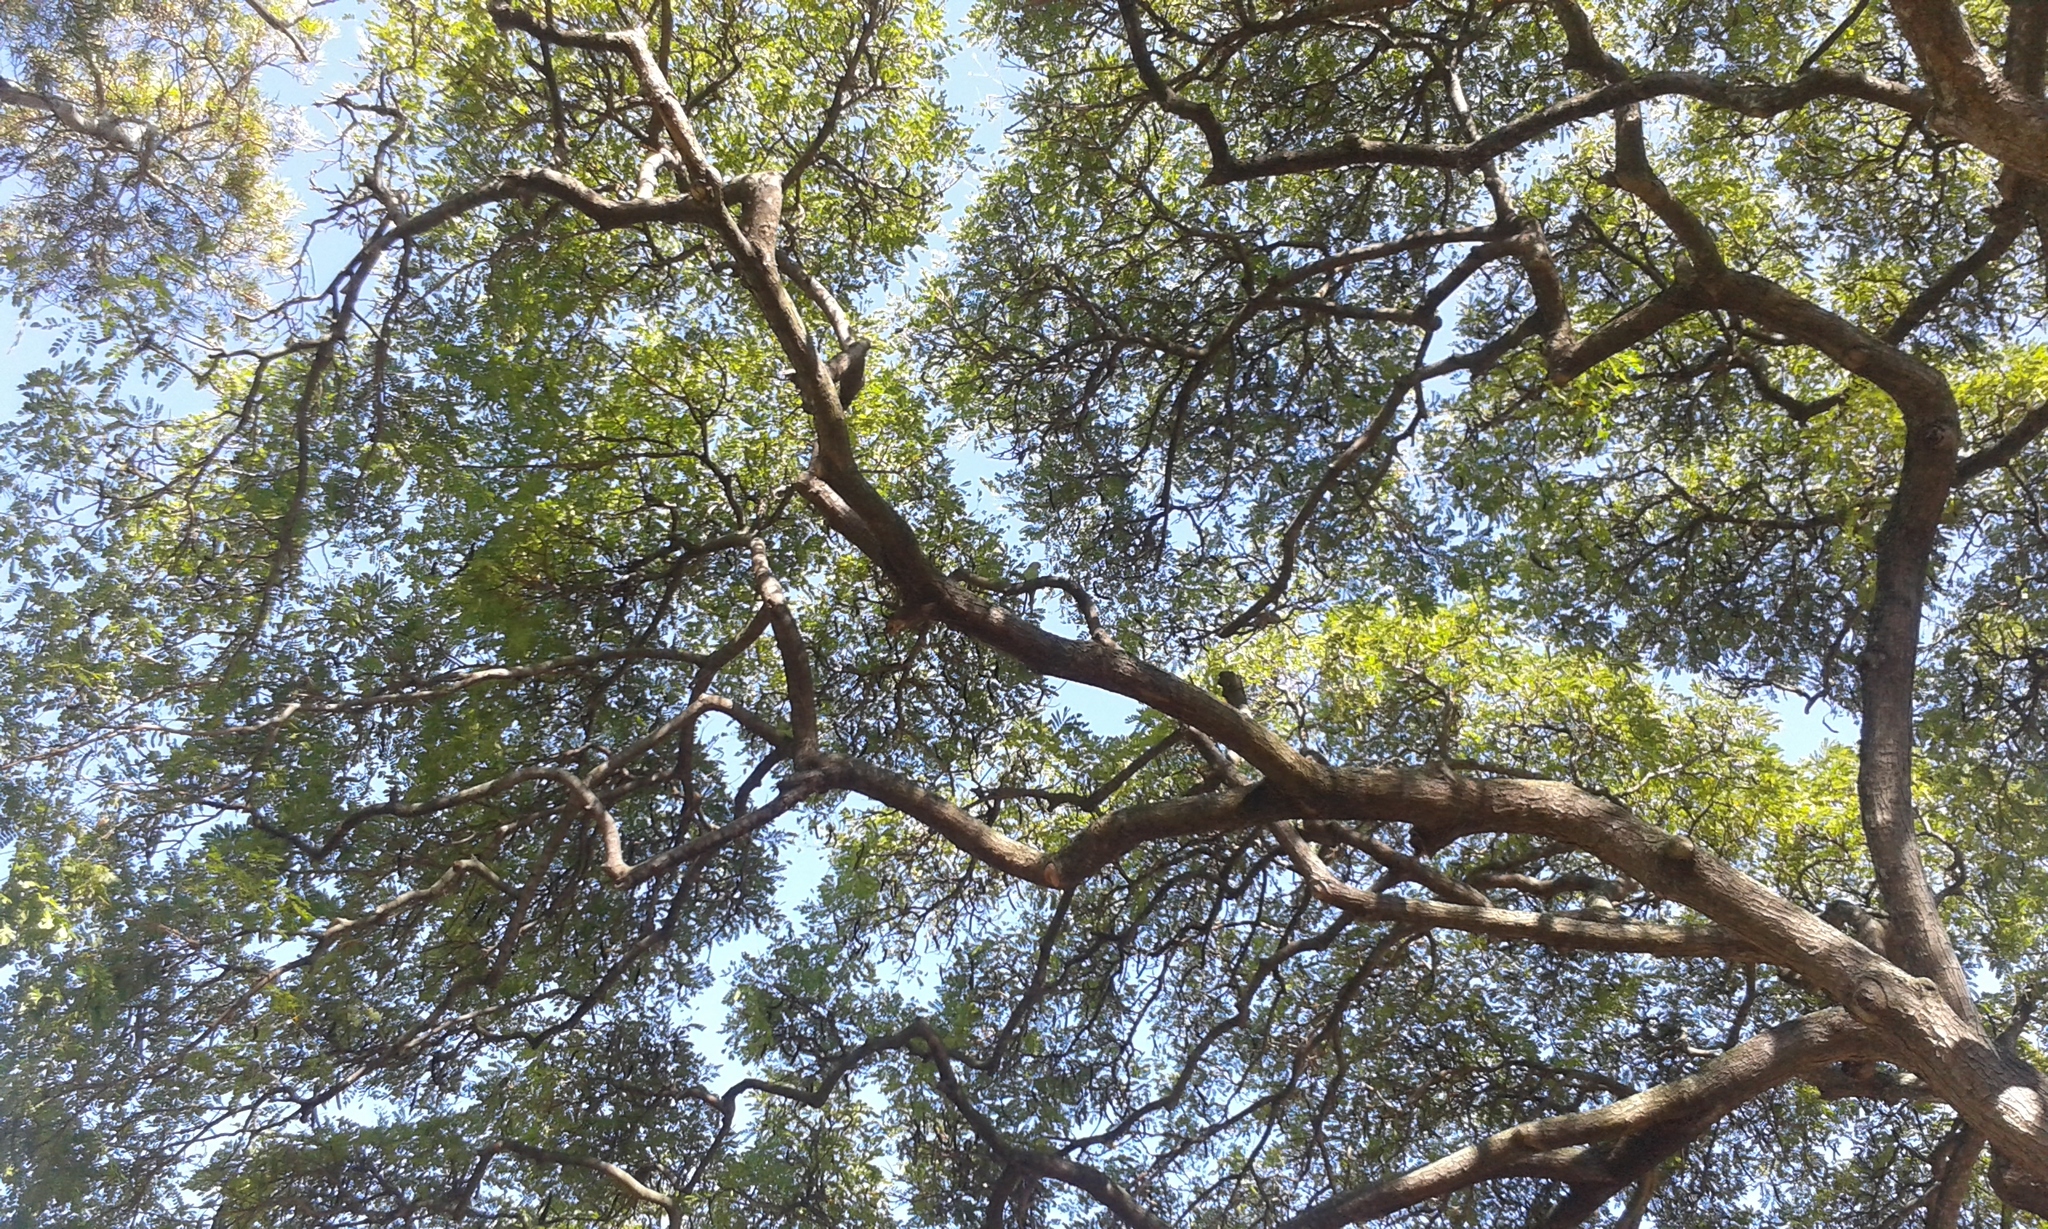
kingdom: Animalia
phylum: Chordata
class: Aves
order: Psittaciformes
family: Psittacidae
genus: Psittacula
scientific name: Psittacula krameri
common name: Rose-ringed parakeet
